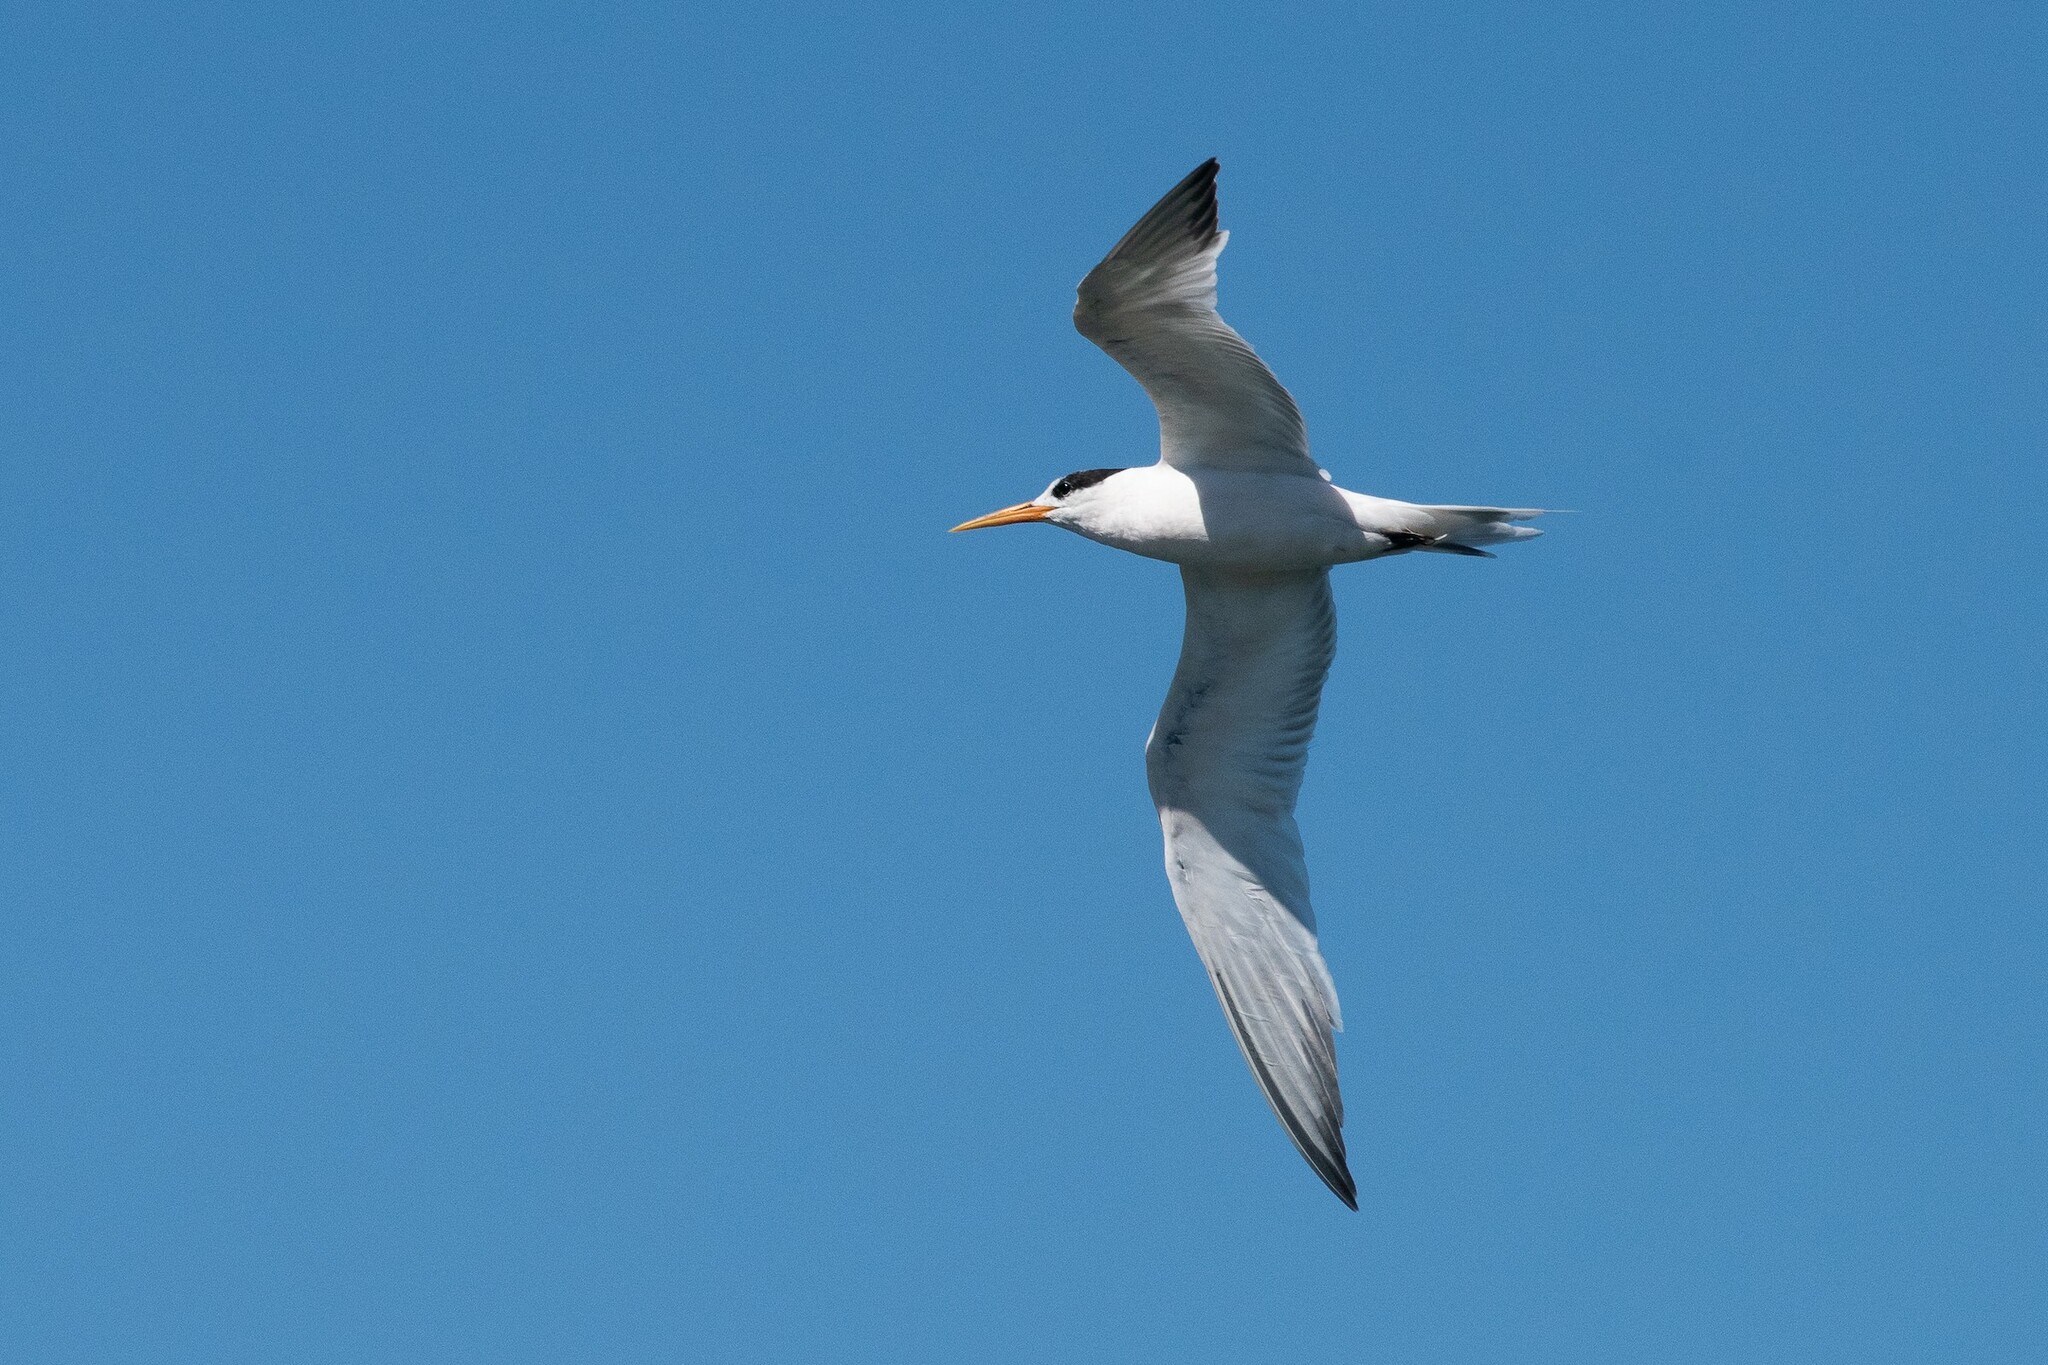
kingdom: Animalia
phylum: Chordata
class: Aves
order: Charadriiformes
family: Laridae
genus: Thalasseus
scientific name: Thalasseus elegans
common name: Elegant tern
